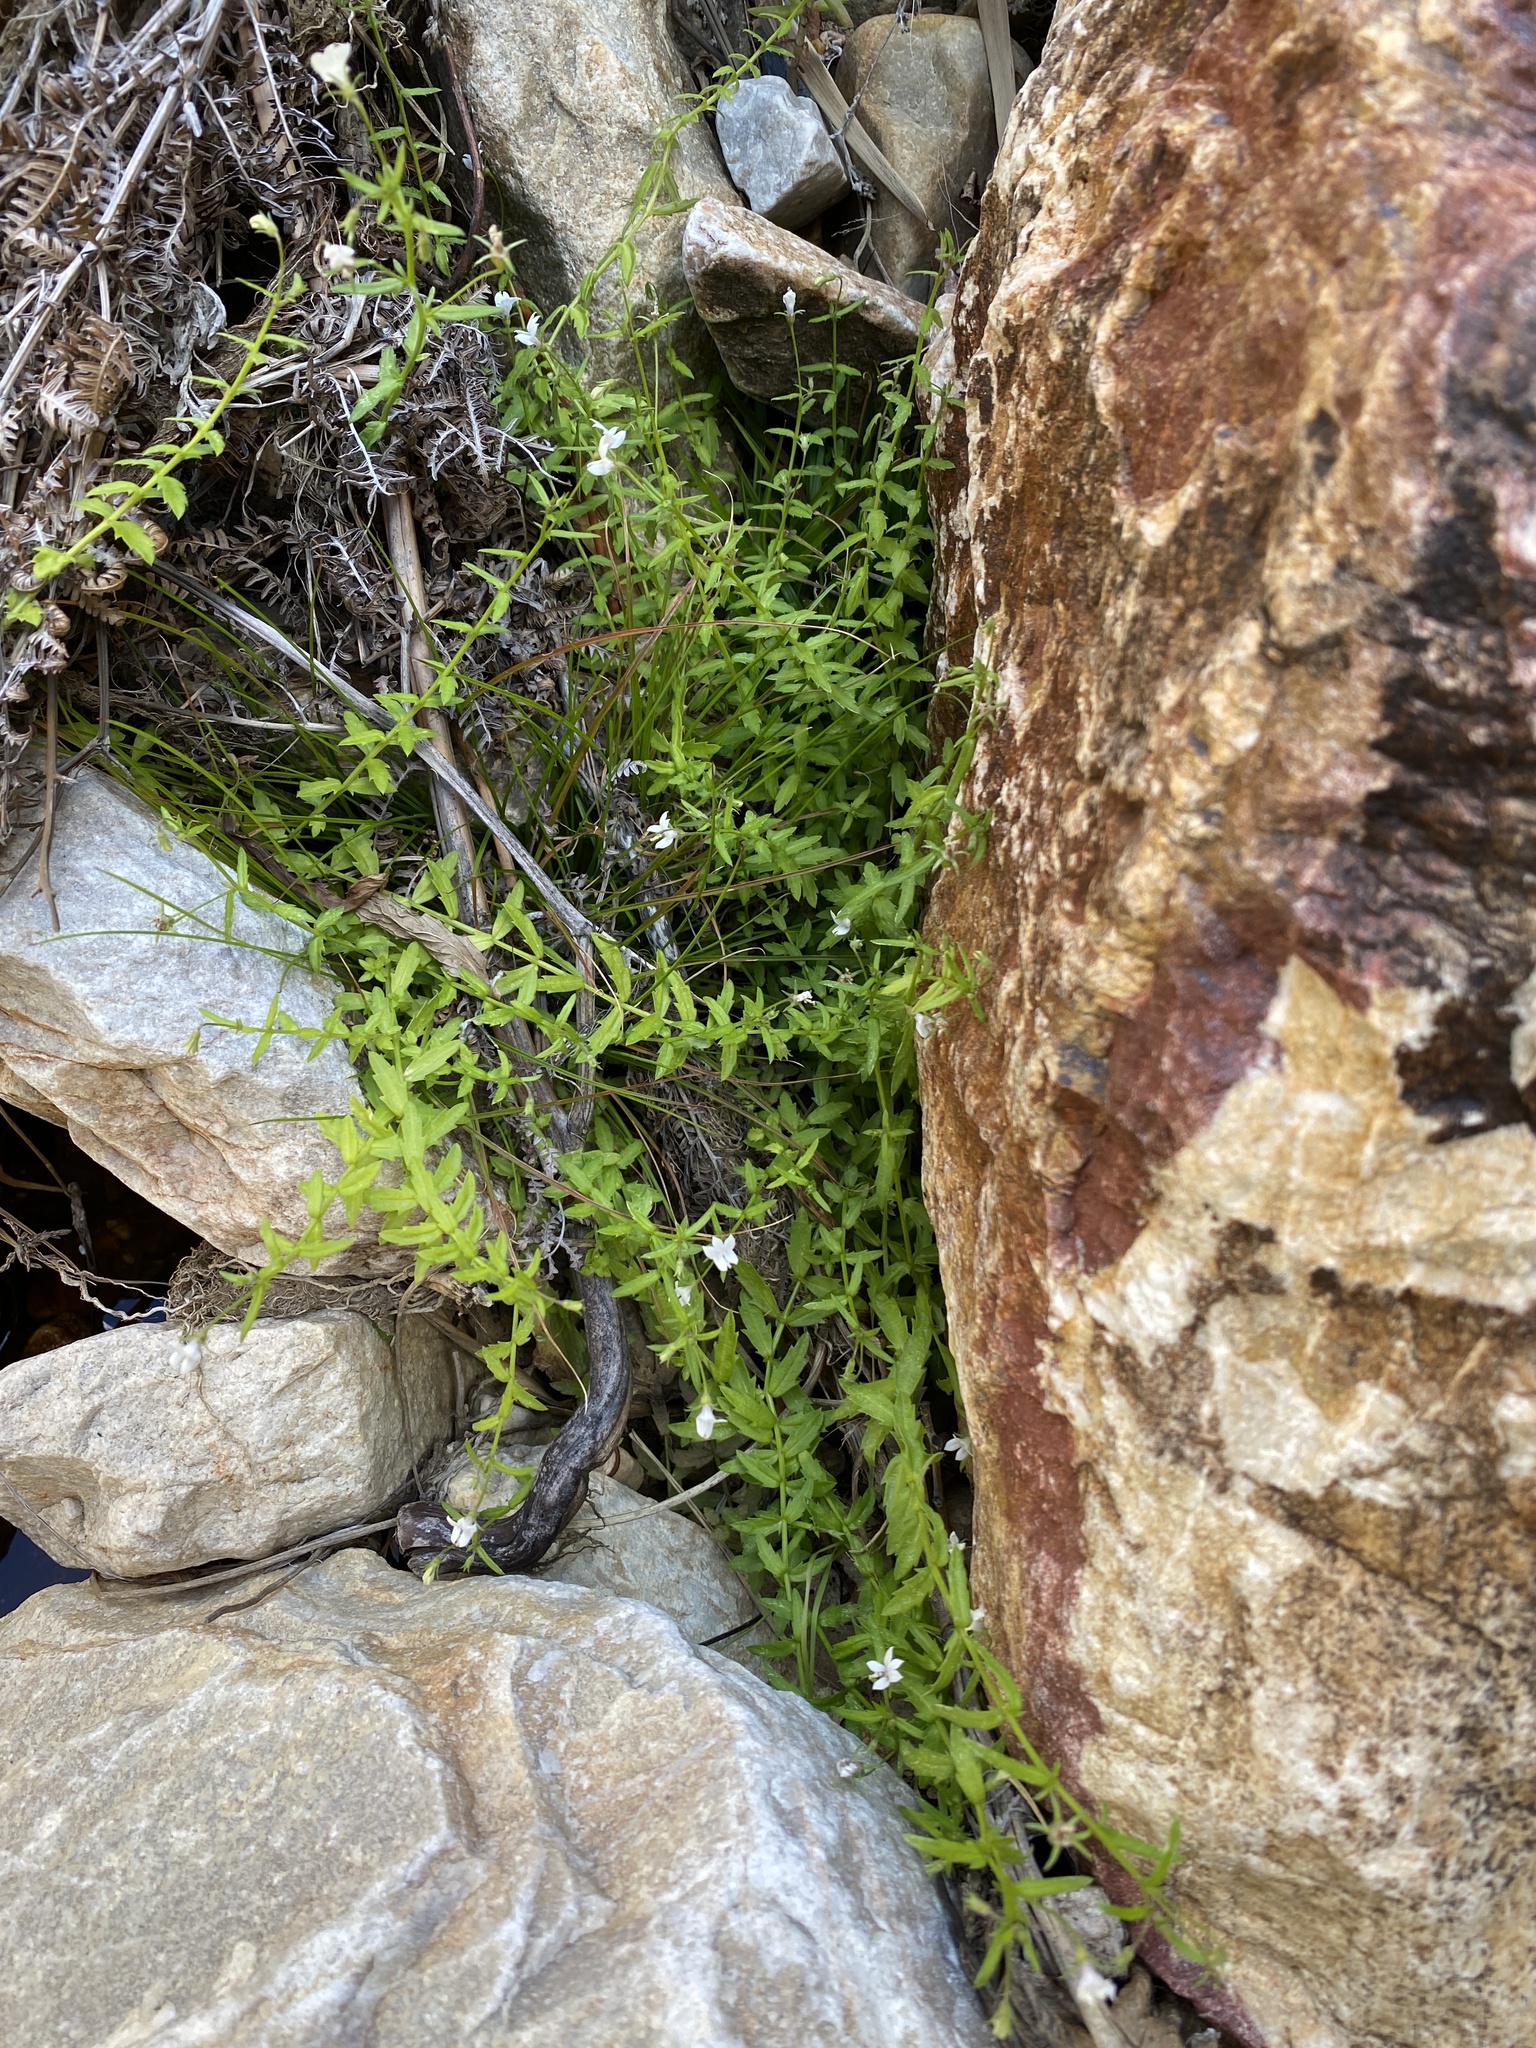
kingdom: Plantae
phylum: Tracheophyta
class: Magnoliopsida
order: Asterales
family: Campanulaceae
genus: Monopsis
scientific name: Monopsis alba
